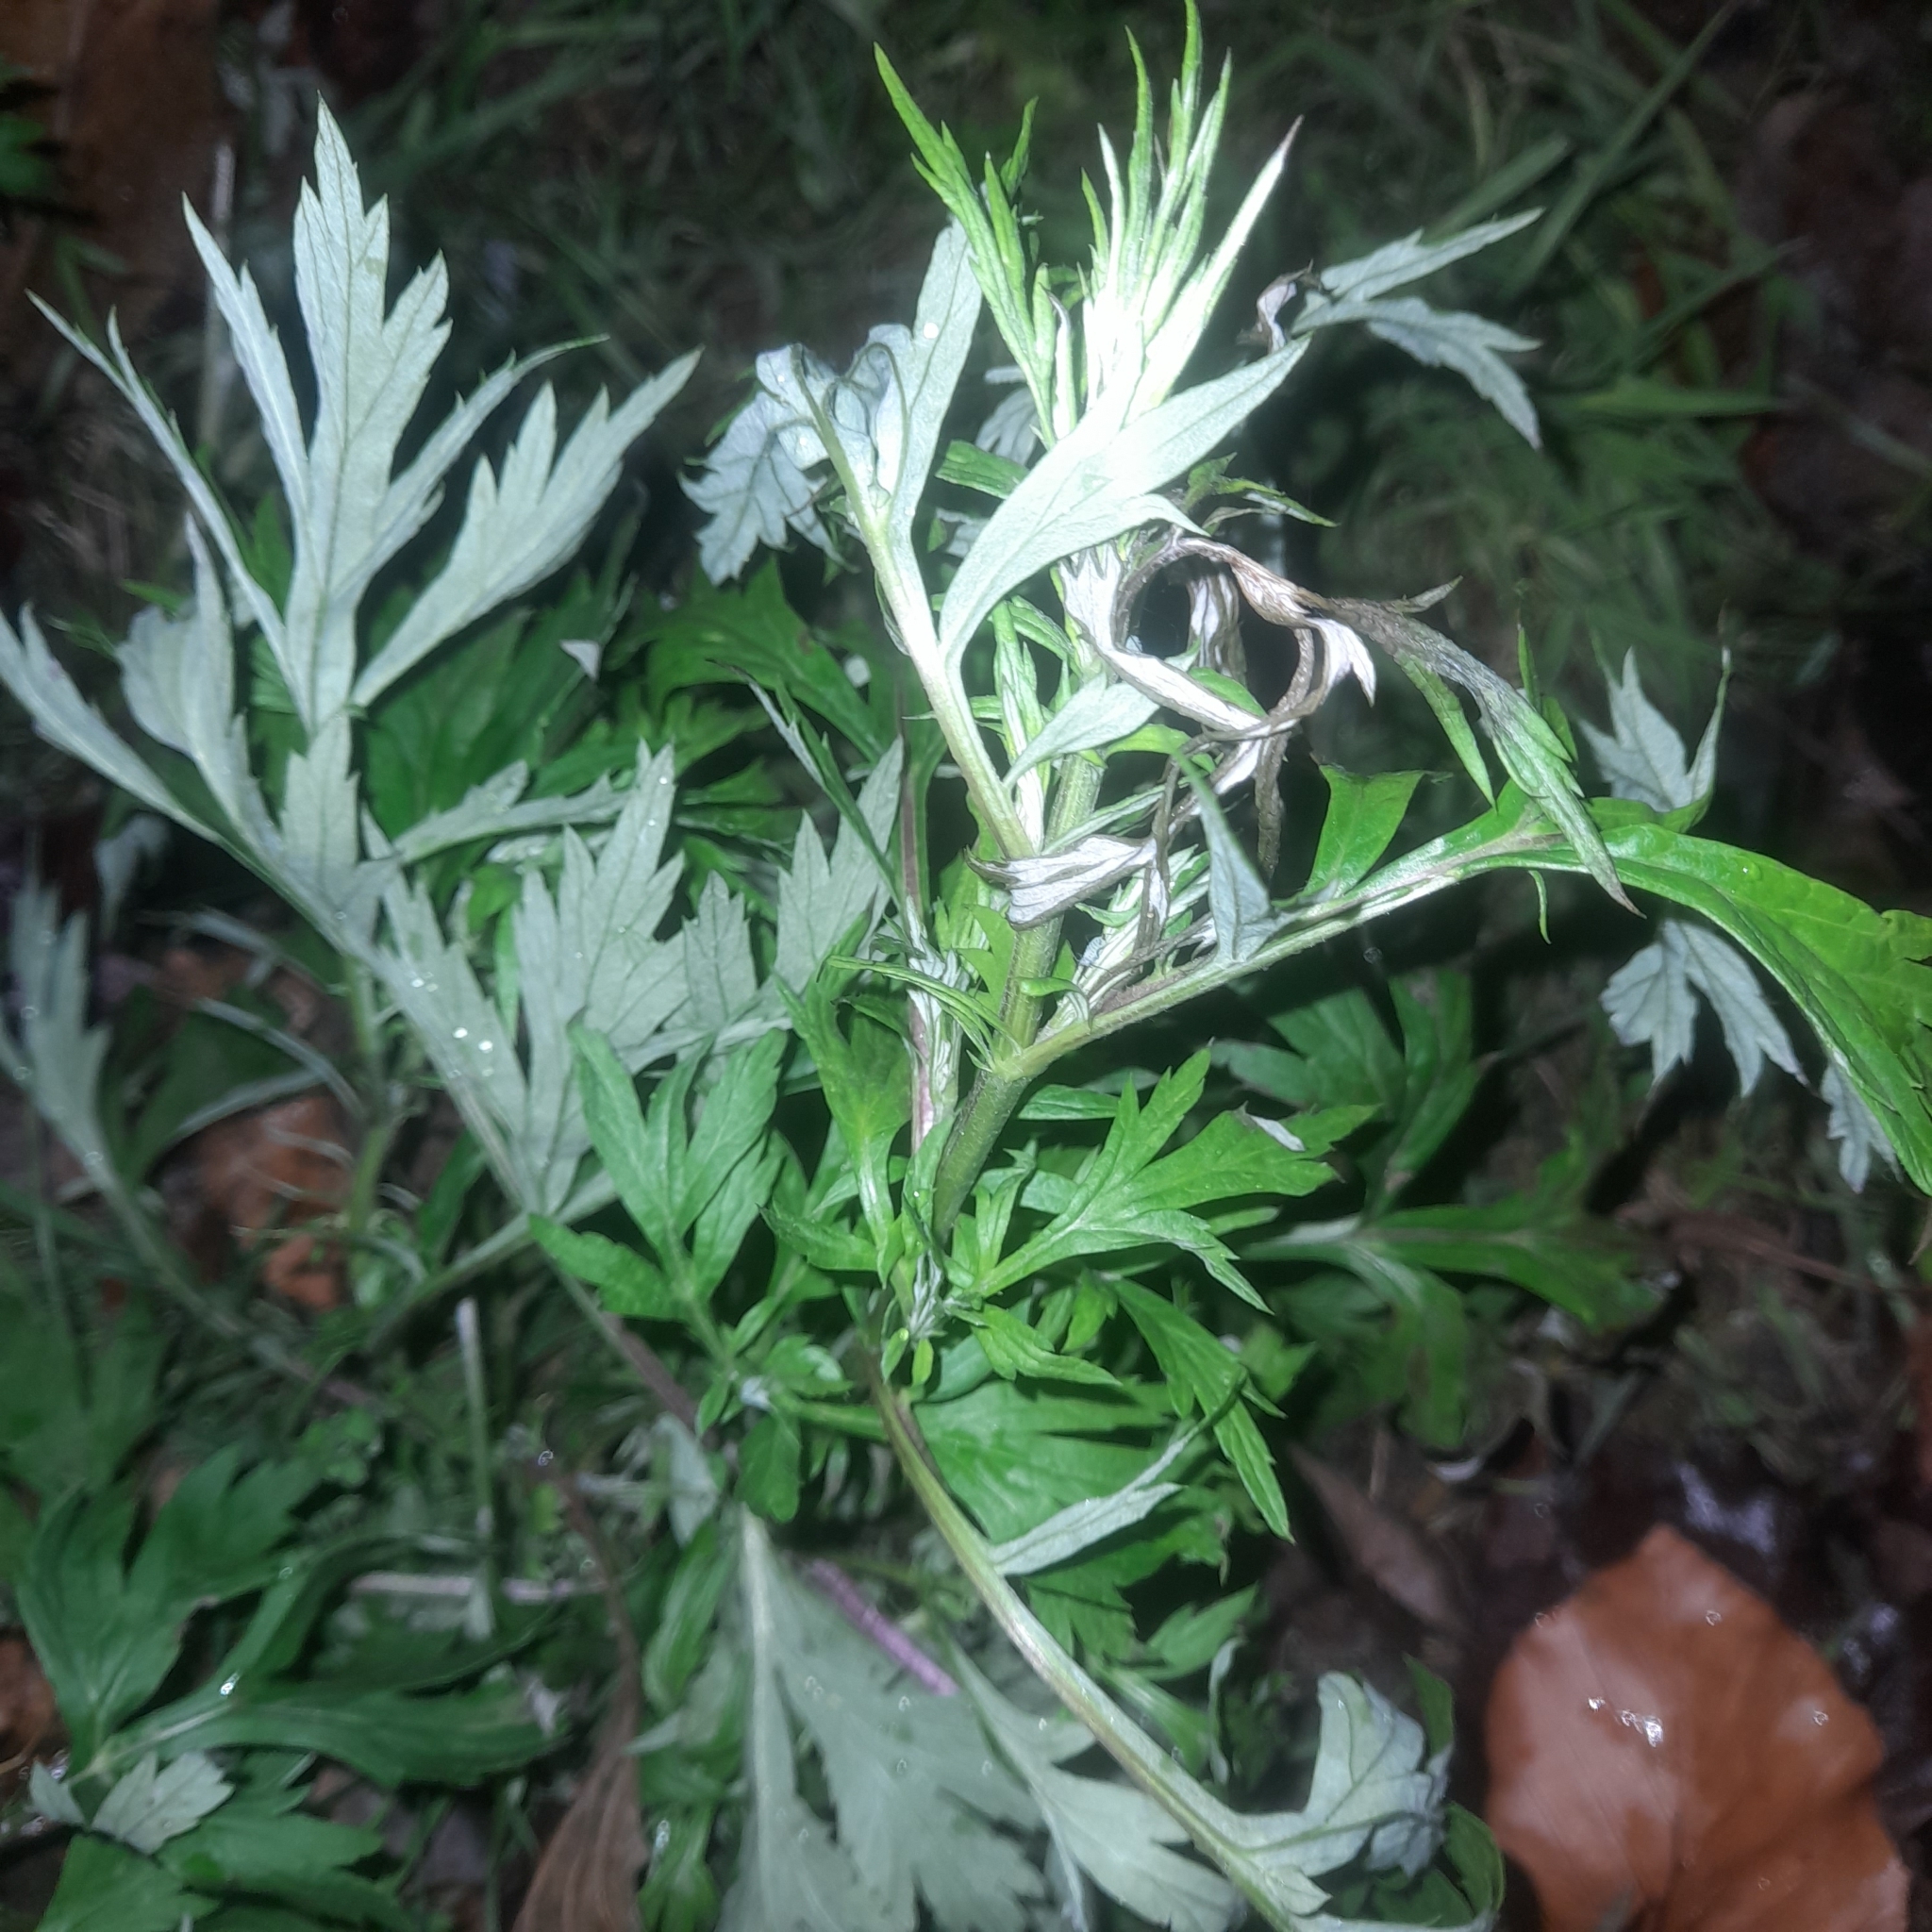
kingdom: Plantae
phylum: Tracheophyta
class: Magnoliopsida
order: Asterales
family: Asteraceae
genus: Artemisia
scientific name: Artemisia vulgaris
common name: Mugwort
